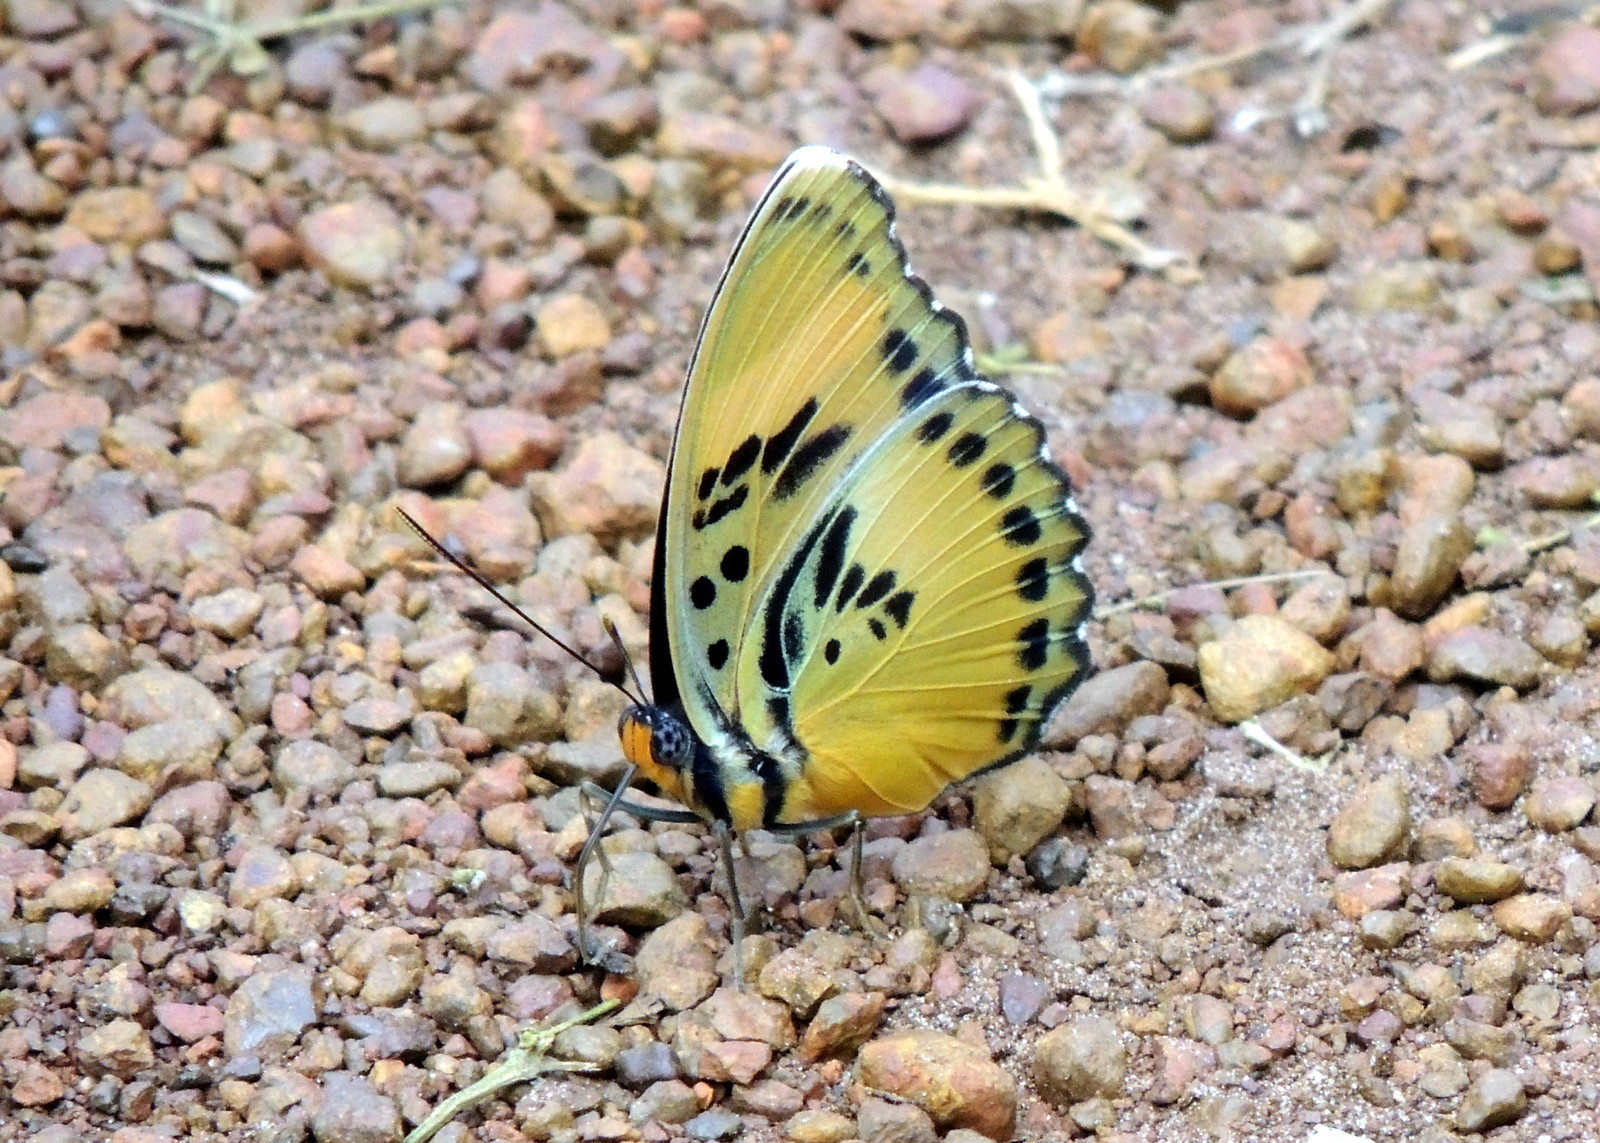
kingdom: Animalia
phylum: Arthropoda
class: Insecta
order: Lepidoptera
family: Nymphalidae
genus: Euphaedra
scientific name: Euphaedra ceres
